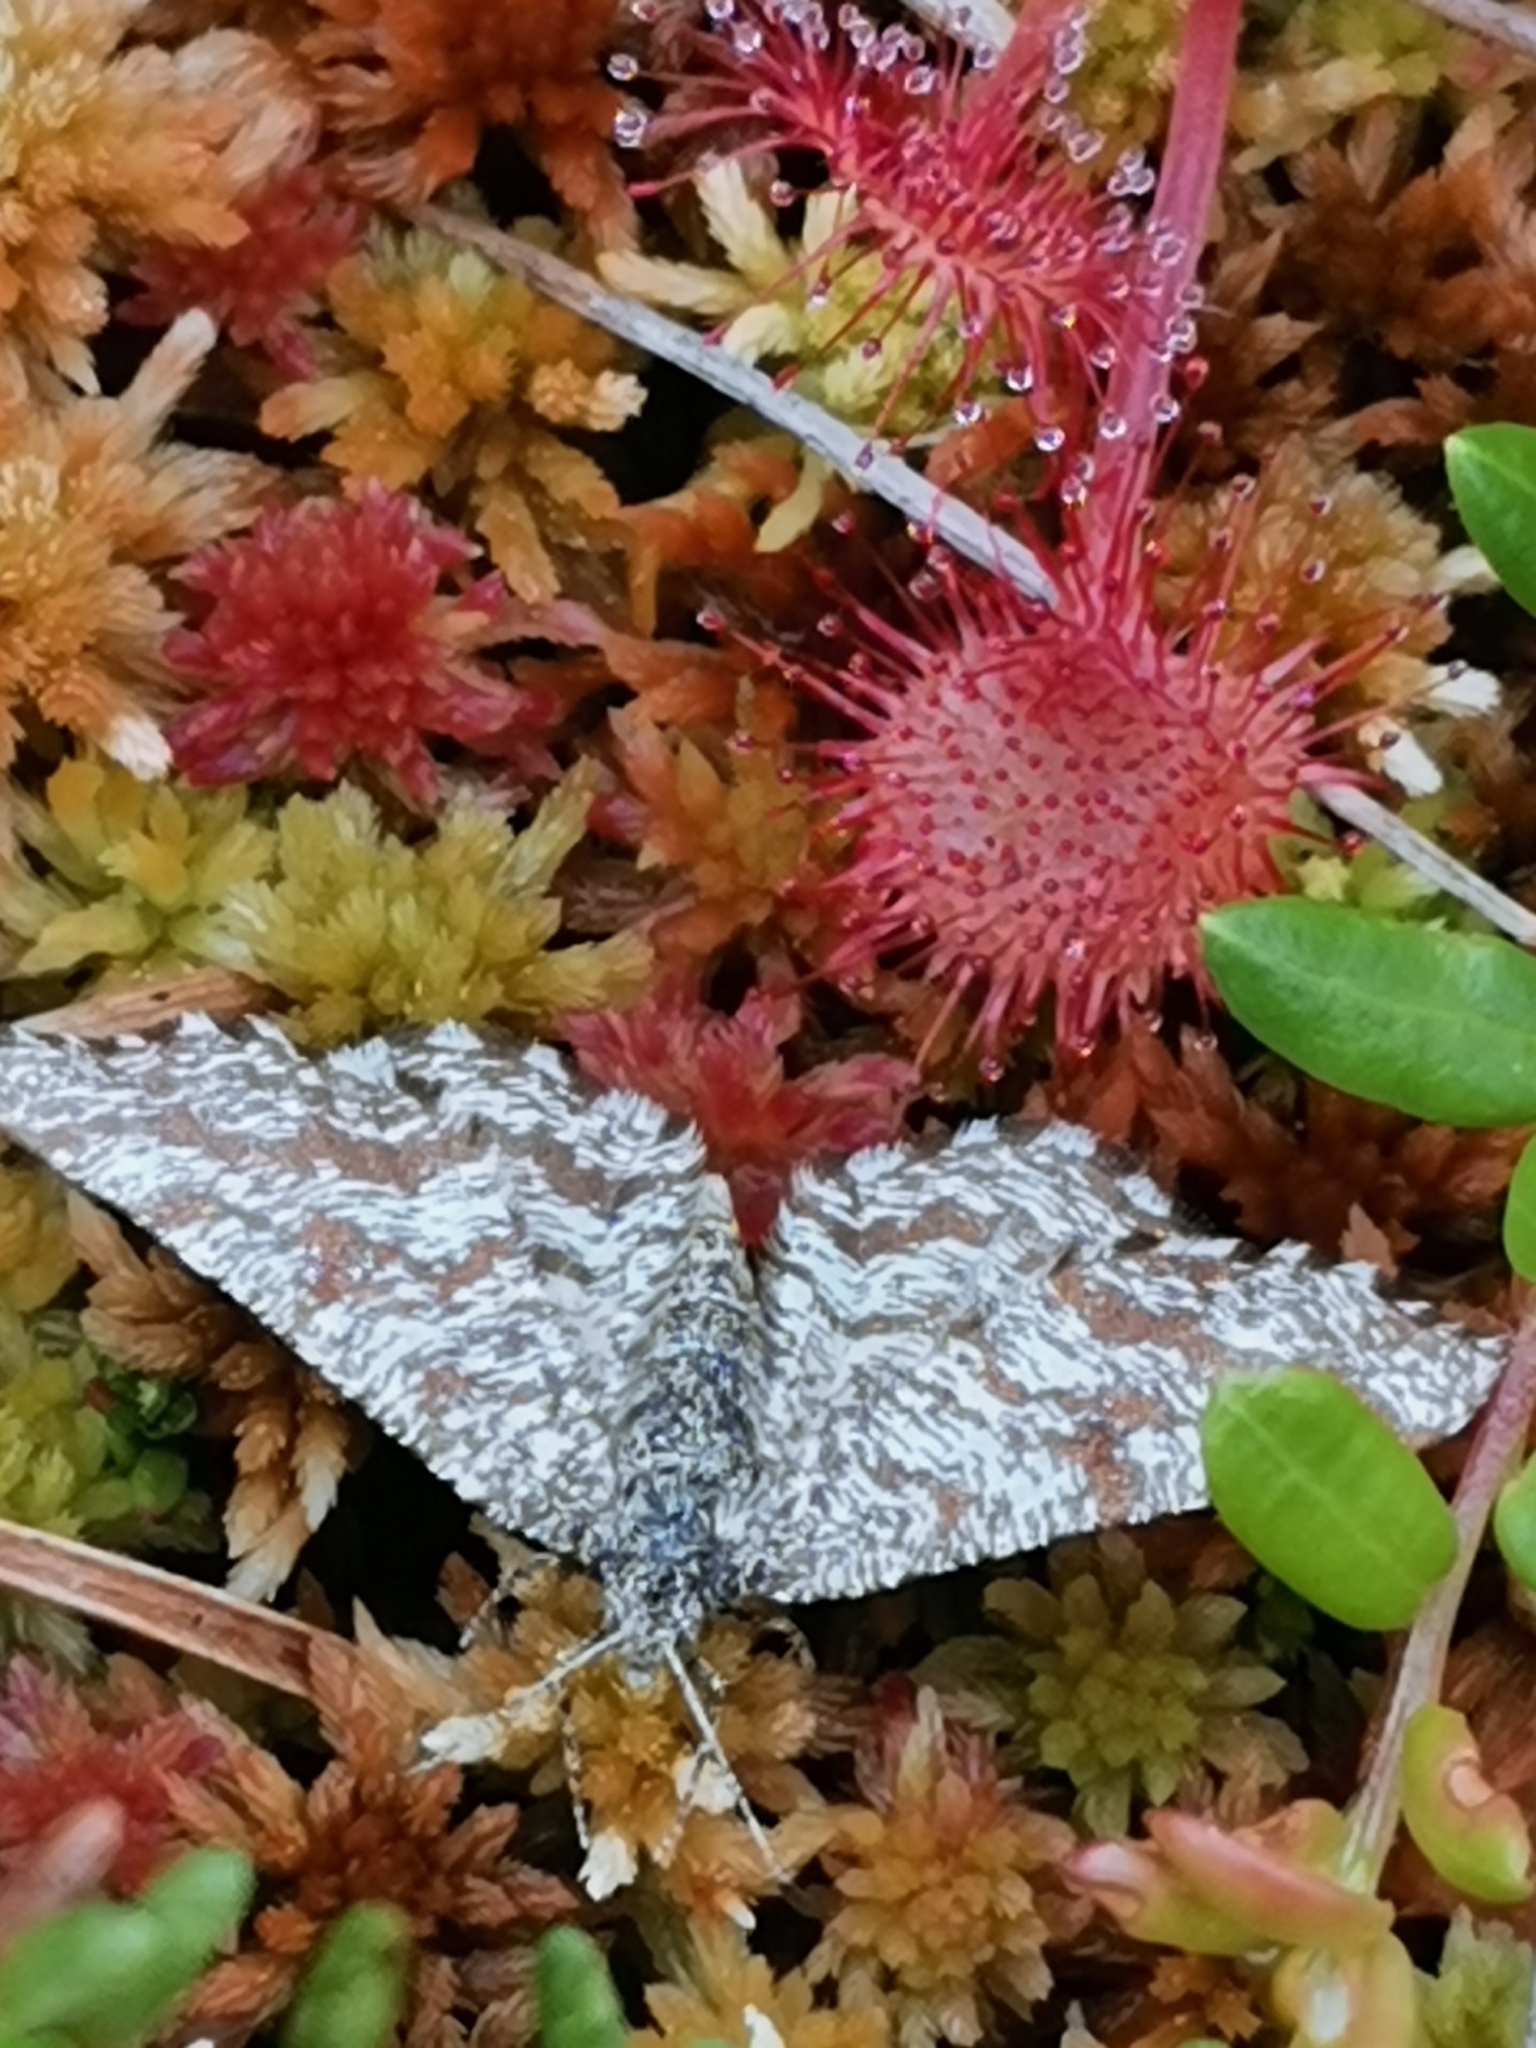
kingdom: Animalia
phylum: Arthropoda
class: Insecta
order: Lepidoptera
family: Geometridae
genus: Ematurga
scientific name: Ematurga atomaria
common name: Common heath
